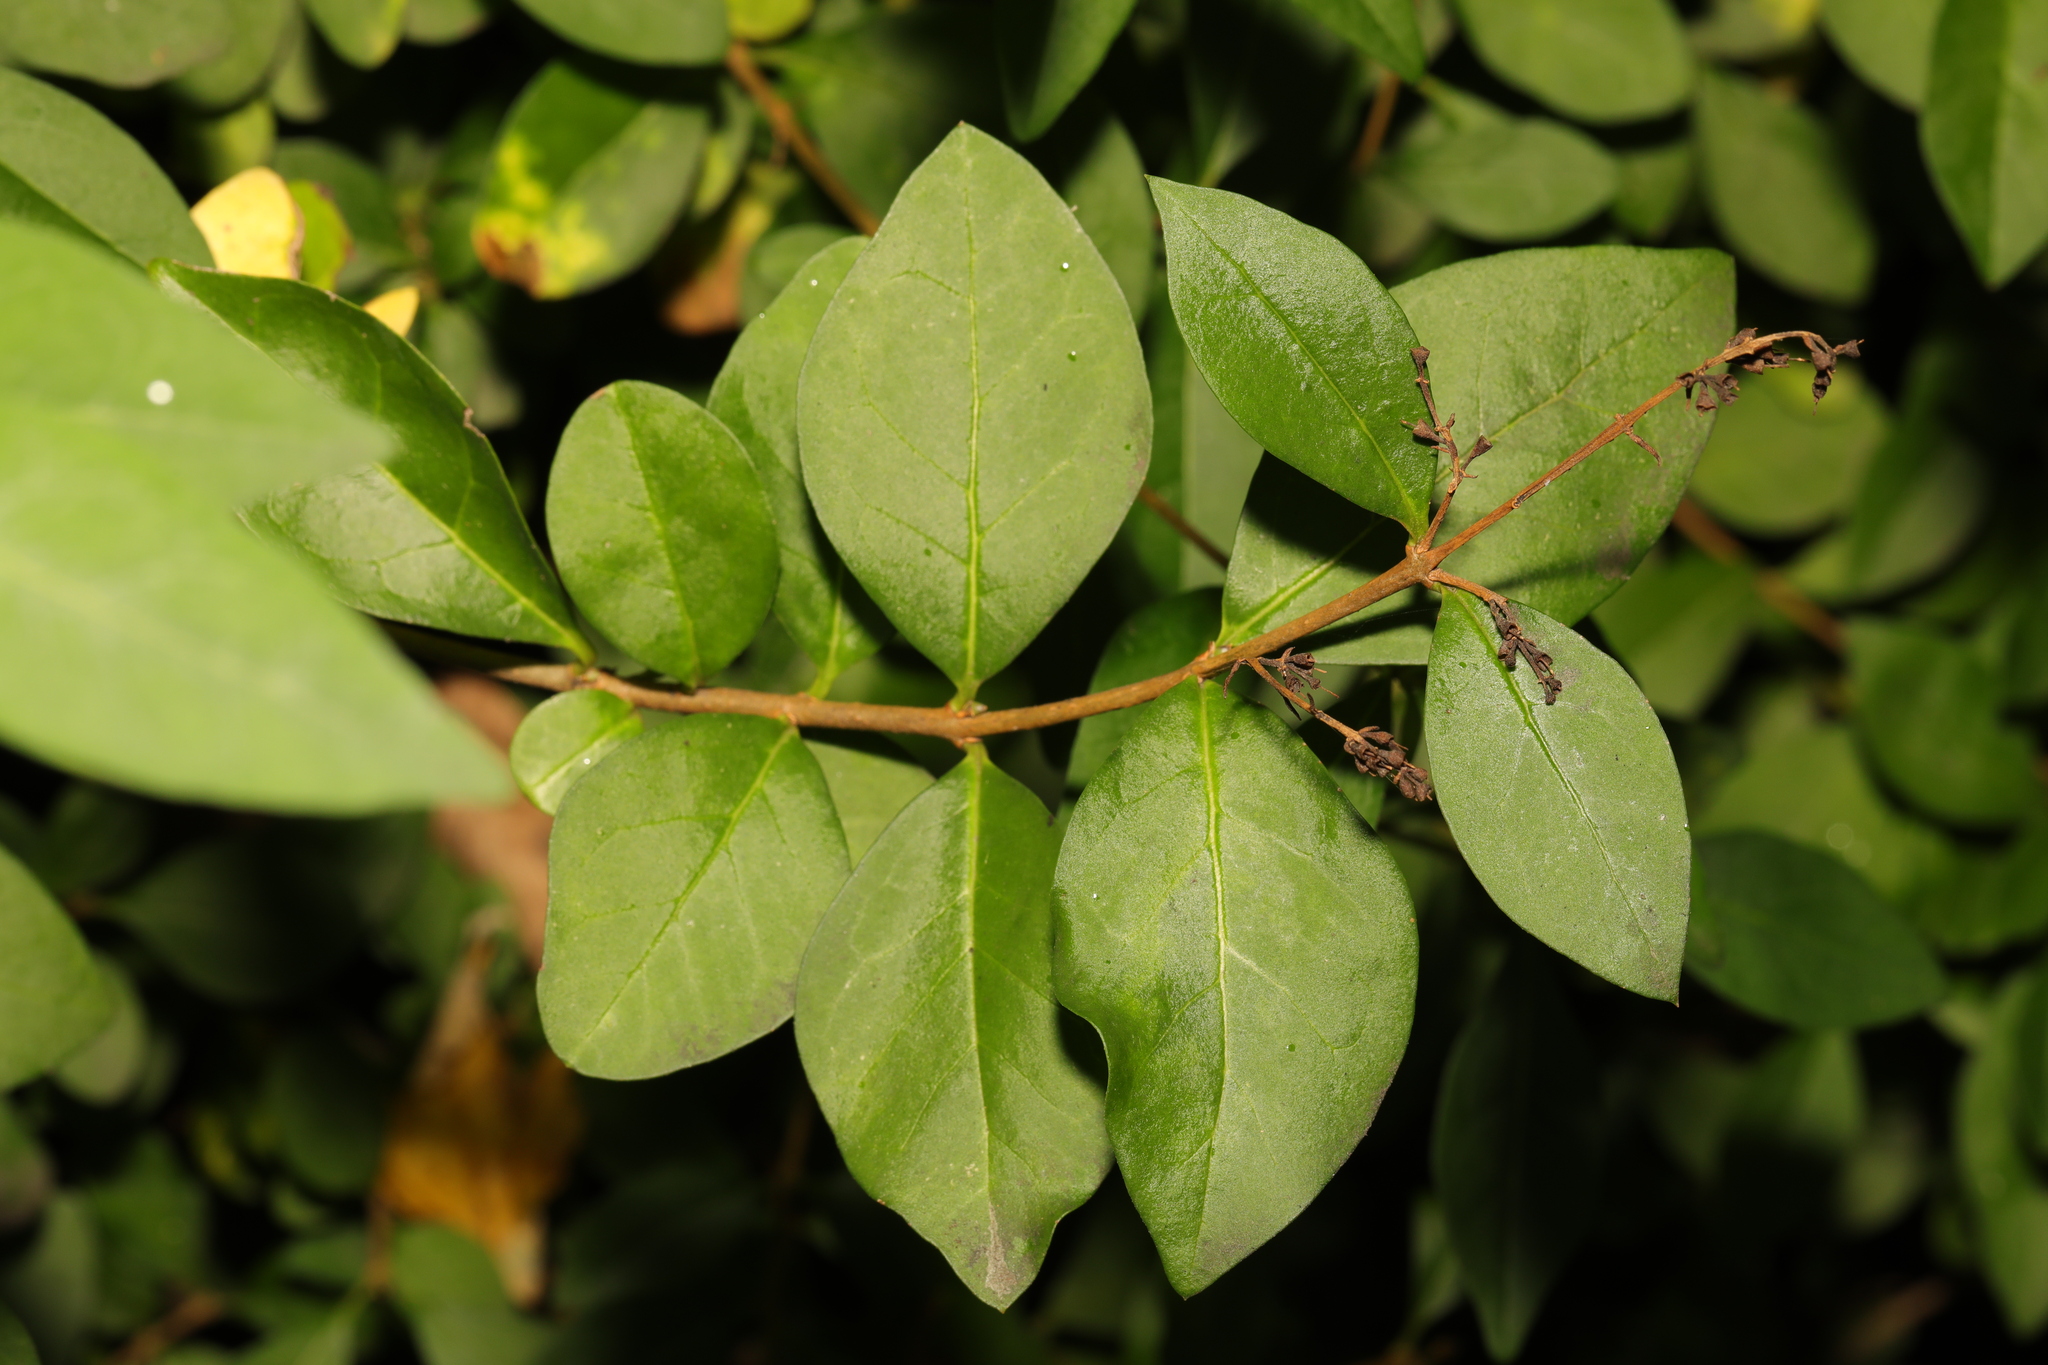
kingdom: Plantae
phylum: Tracheophyta
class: Magnoliopsida
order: Lamiales
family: Oleaceae
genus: Ligustrum
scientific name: Ligustrum ovalifolium
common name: California privet
